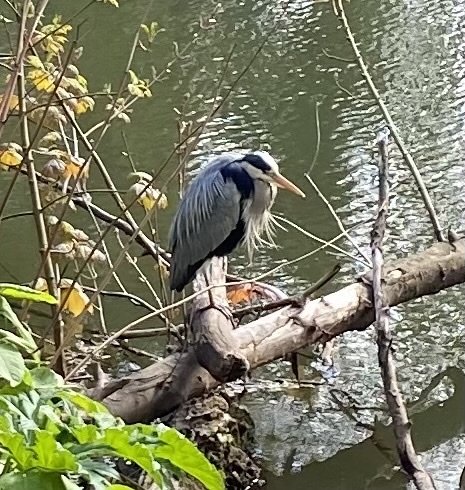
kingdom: Animalia
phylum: Chordata
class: Aves
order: Pelecaniformes
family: Ardeidae
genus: Ardea
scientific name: Ardea cinerea
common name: Grey heron
